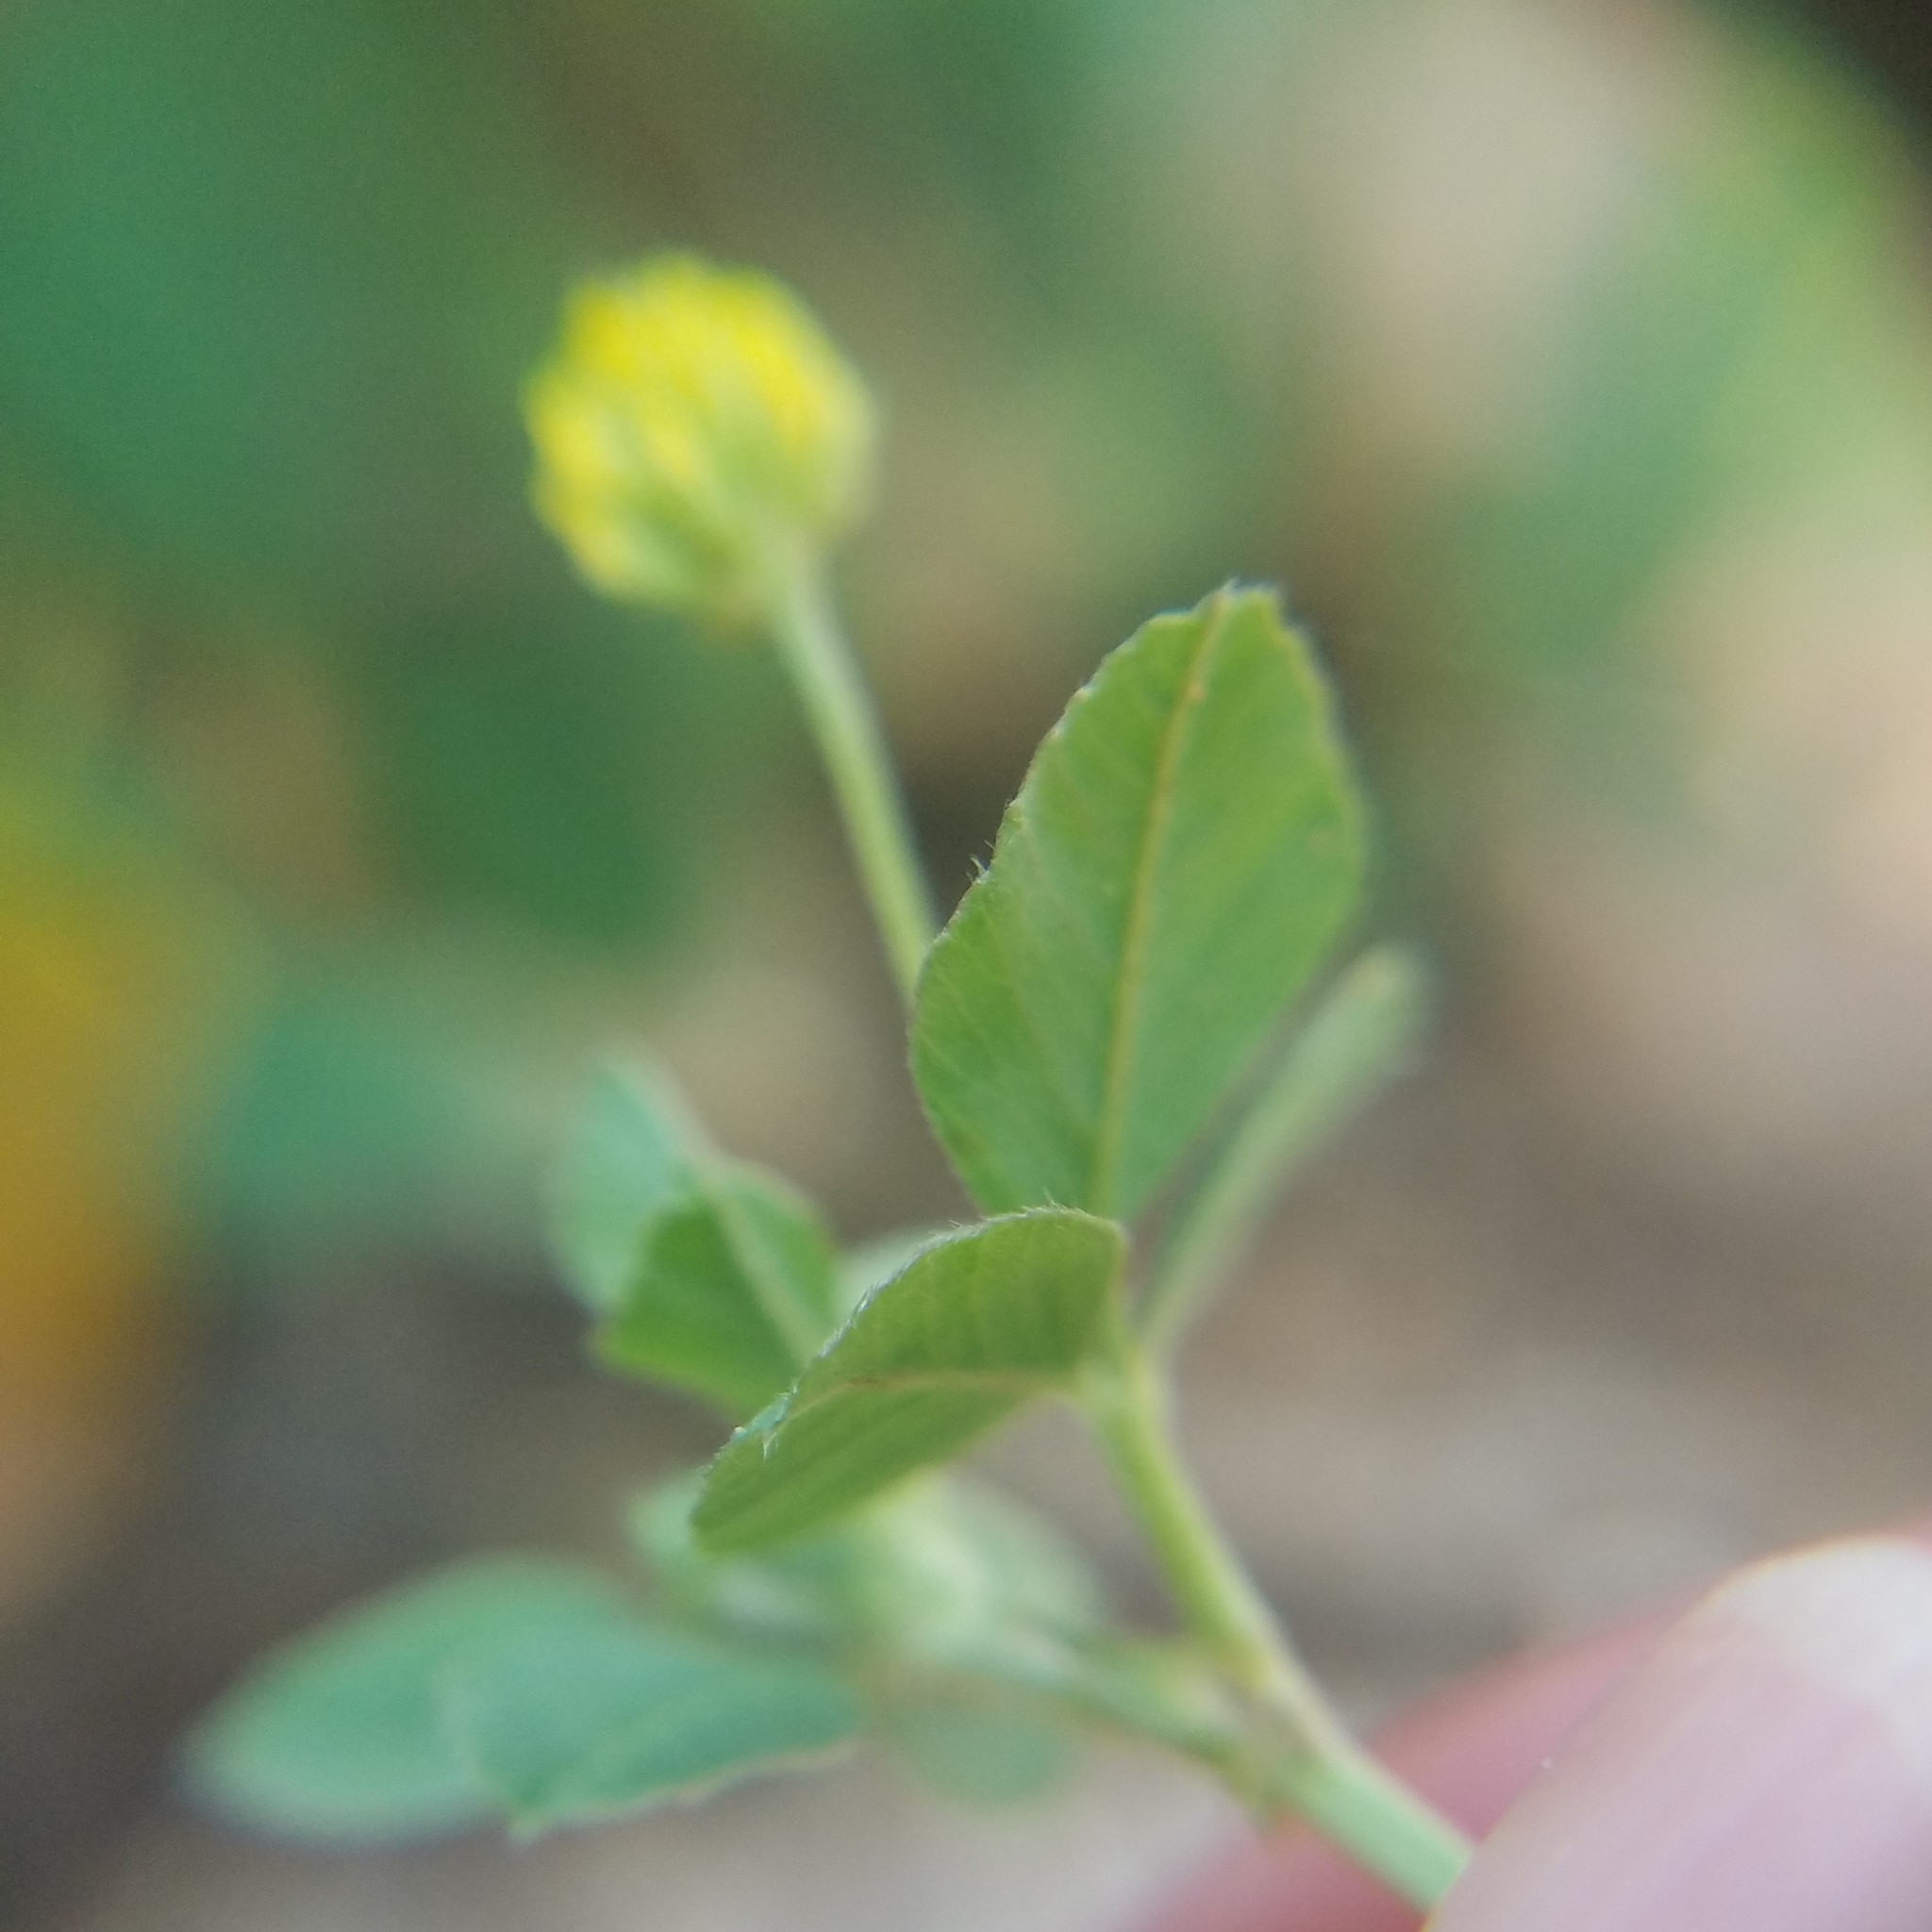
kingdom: Plantae
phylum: Tracheophyta
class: Magnoliopsida
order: Fabales
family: Fabaceae
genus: Medicago
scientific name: Medicago lupulina
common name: Black medick
